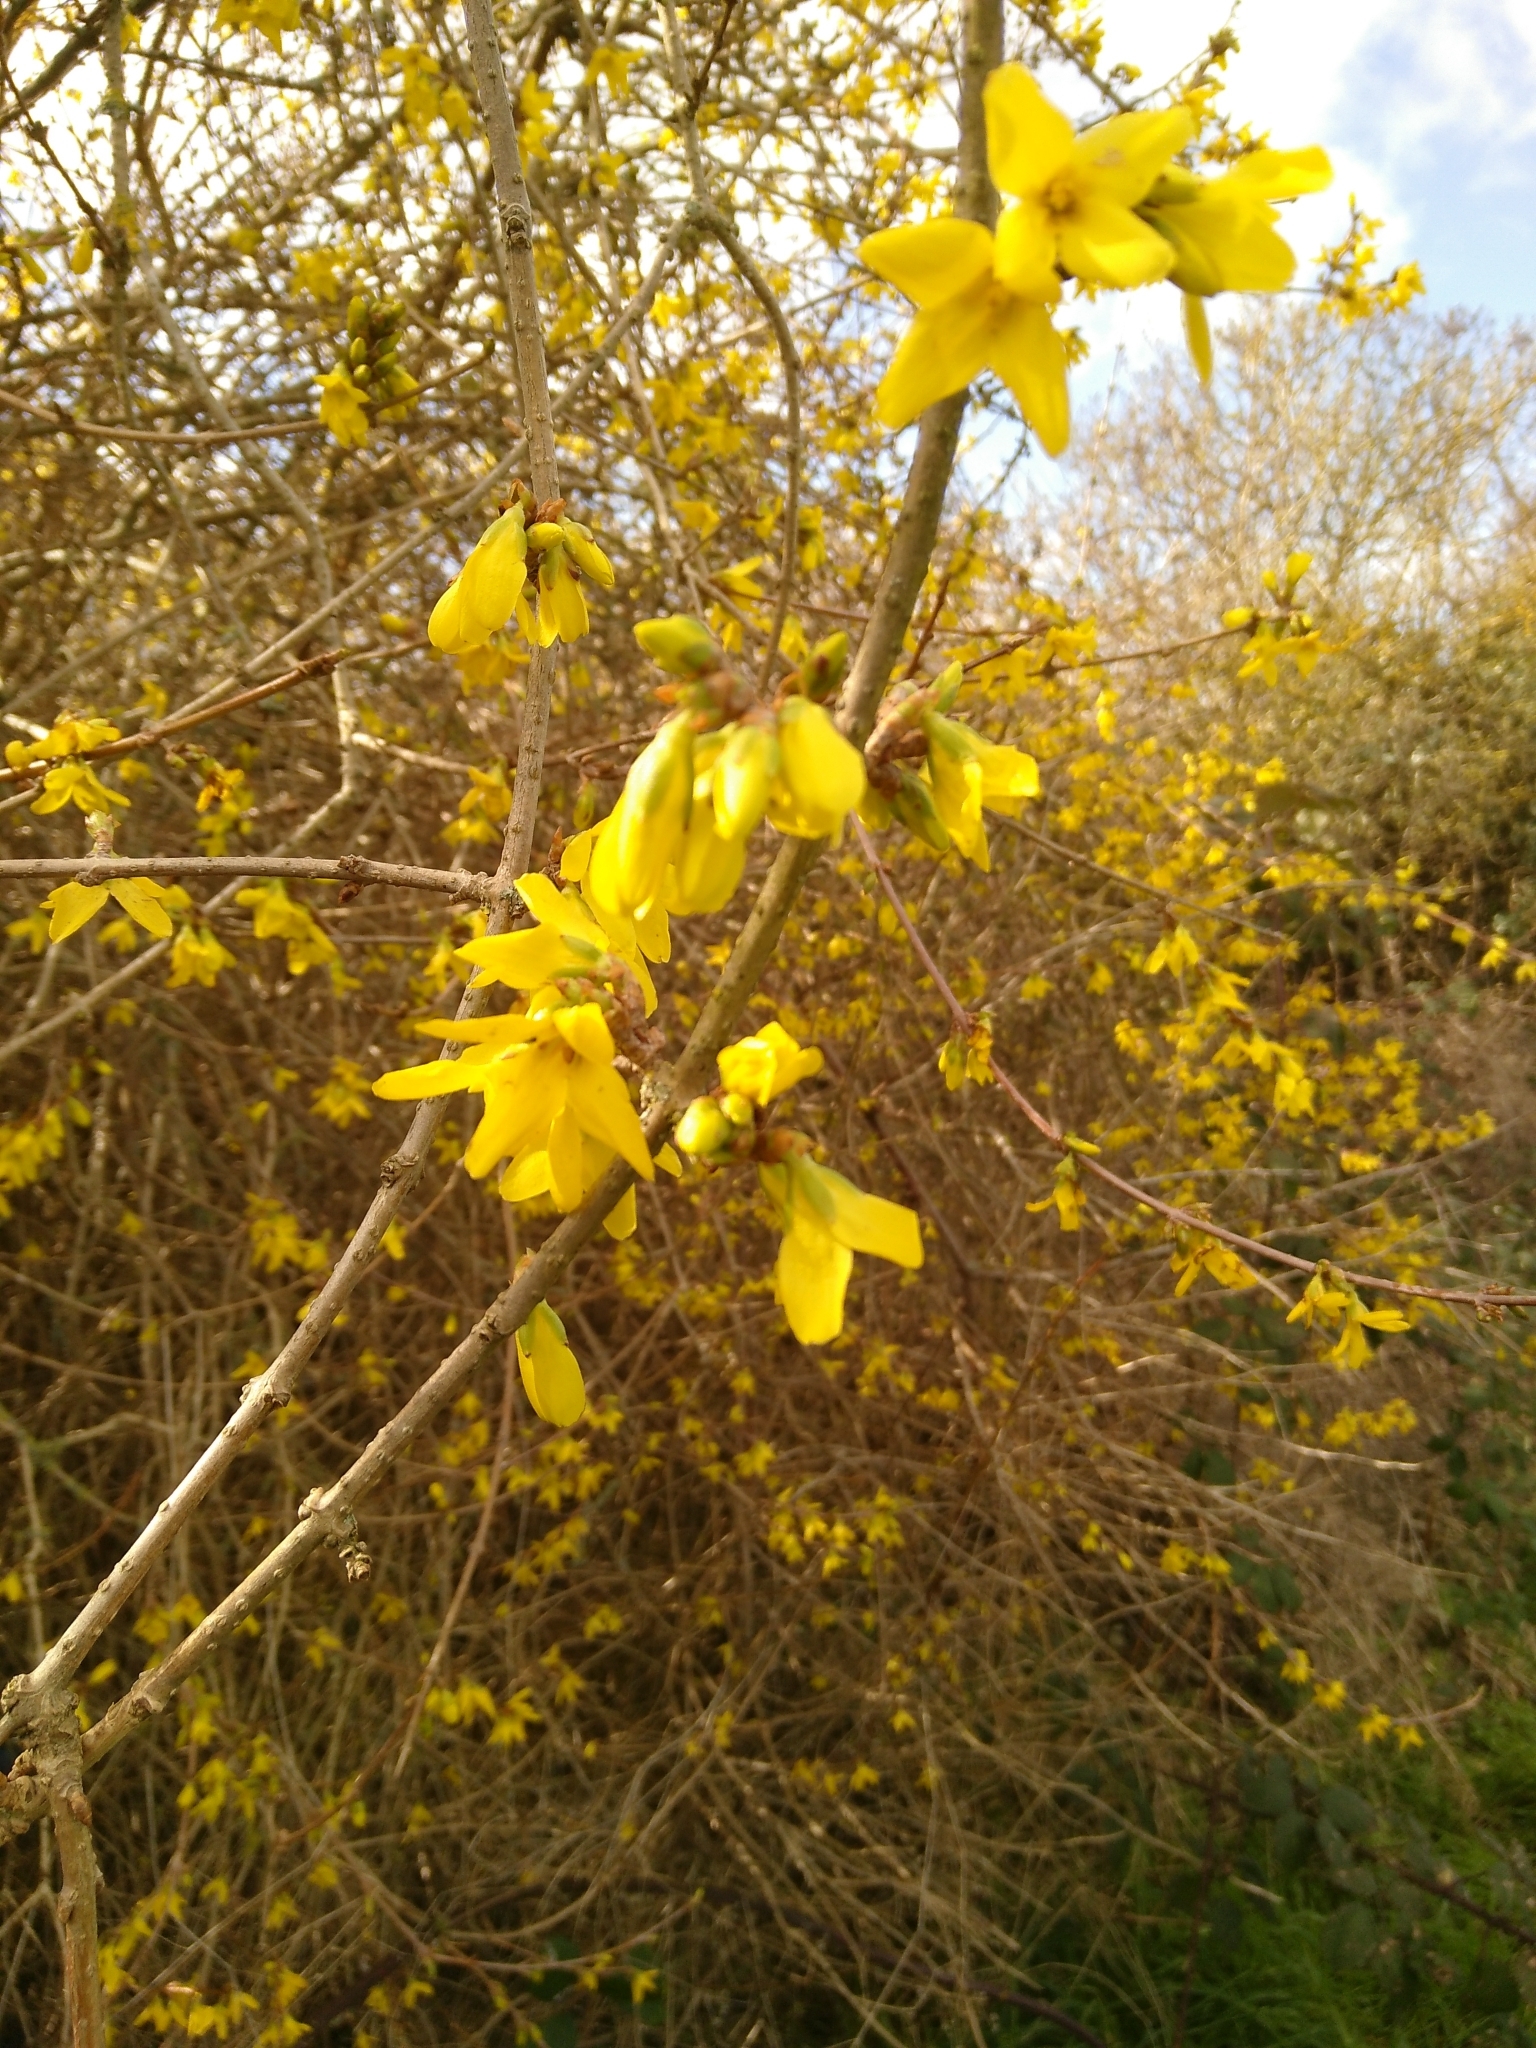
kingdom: Plantae
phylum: Tracheophyta
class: Magnoliopsida
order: Lamiales
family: Oleaceae
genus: Forsythia
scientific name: Forsythia intermedia
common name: Forsythia
